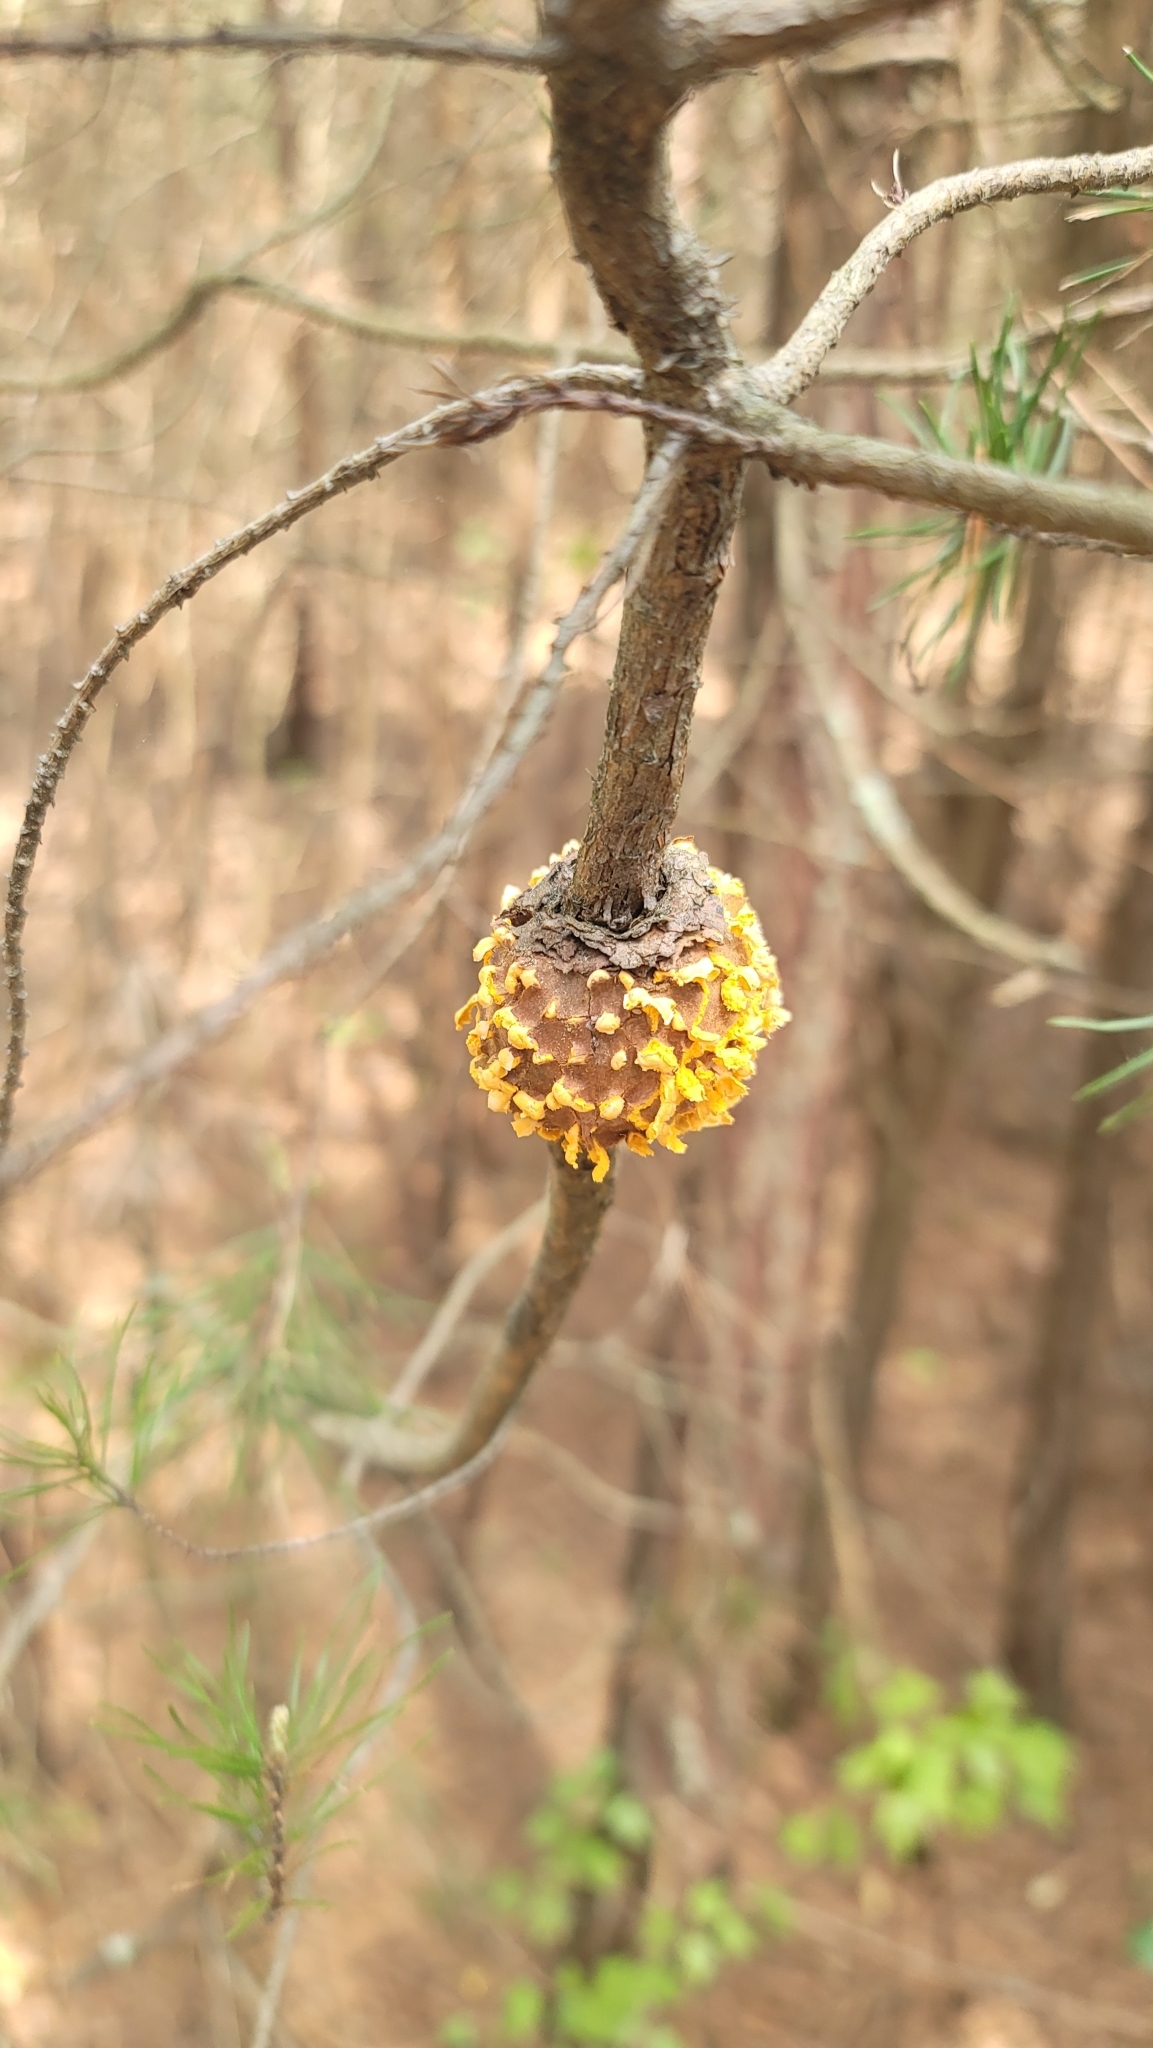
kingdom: Fungi
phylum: Basidiomycota
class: Pucciniomycetes
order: Pucciniales
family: Cronartiaceae
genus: Cronartium
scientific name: Cronartium quercuum
